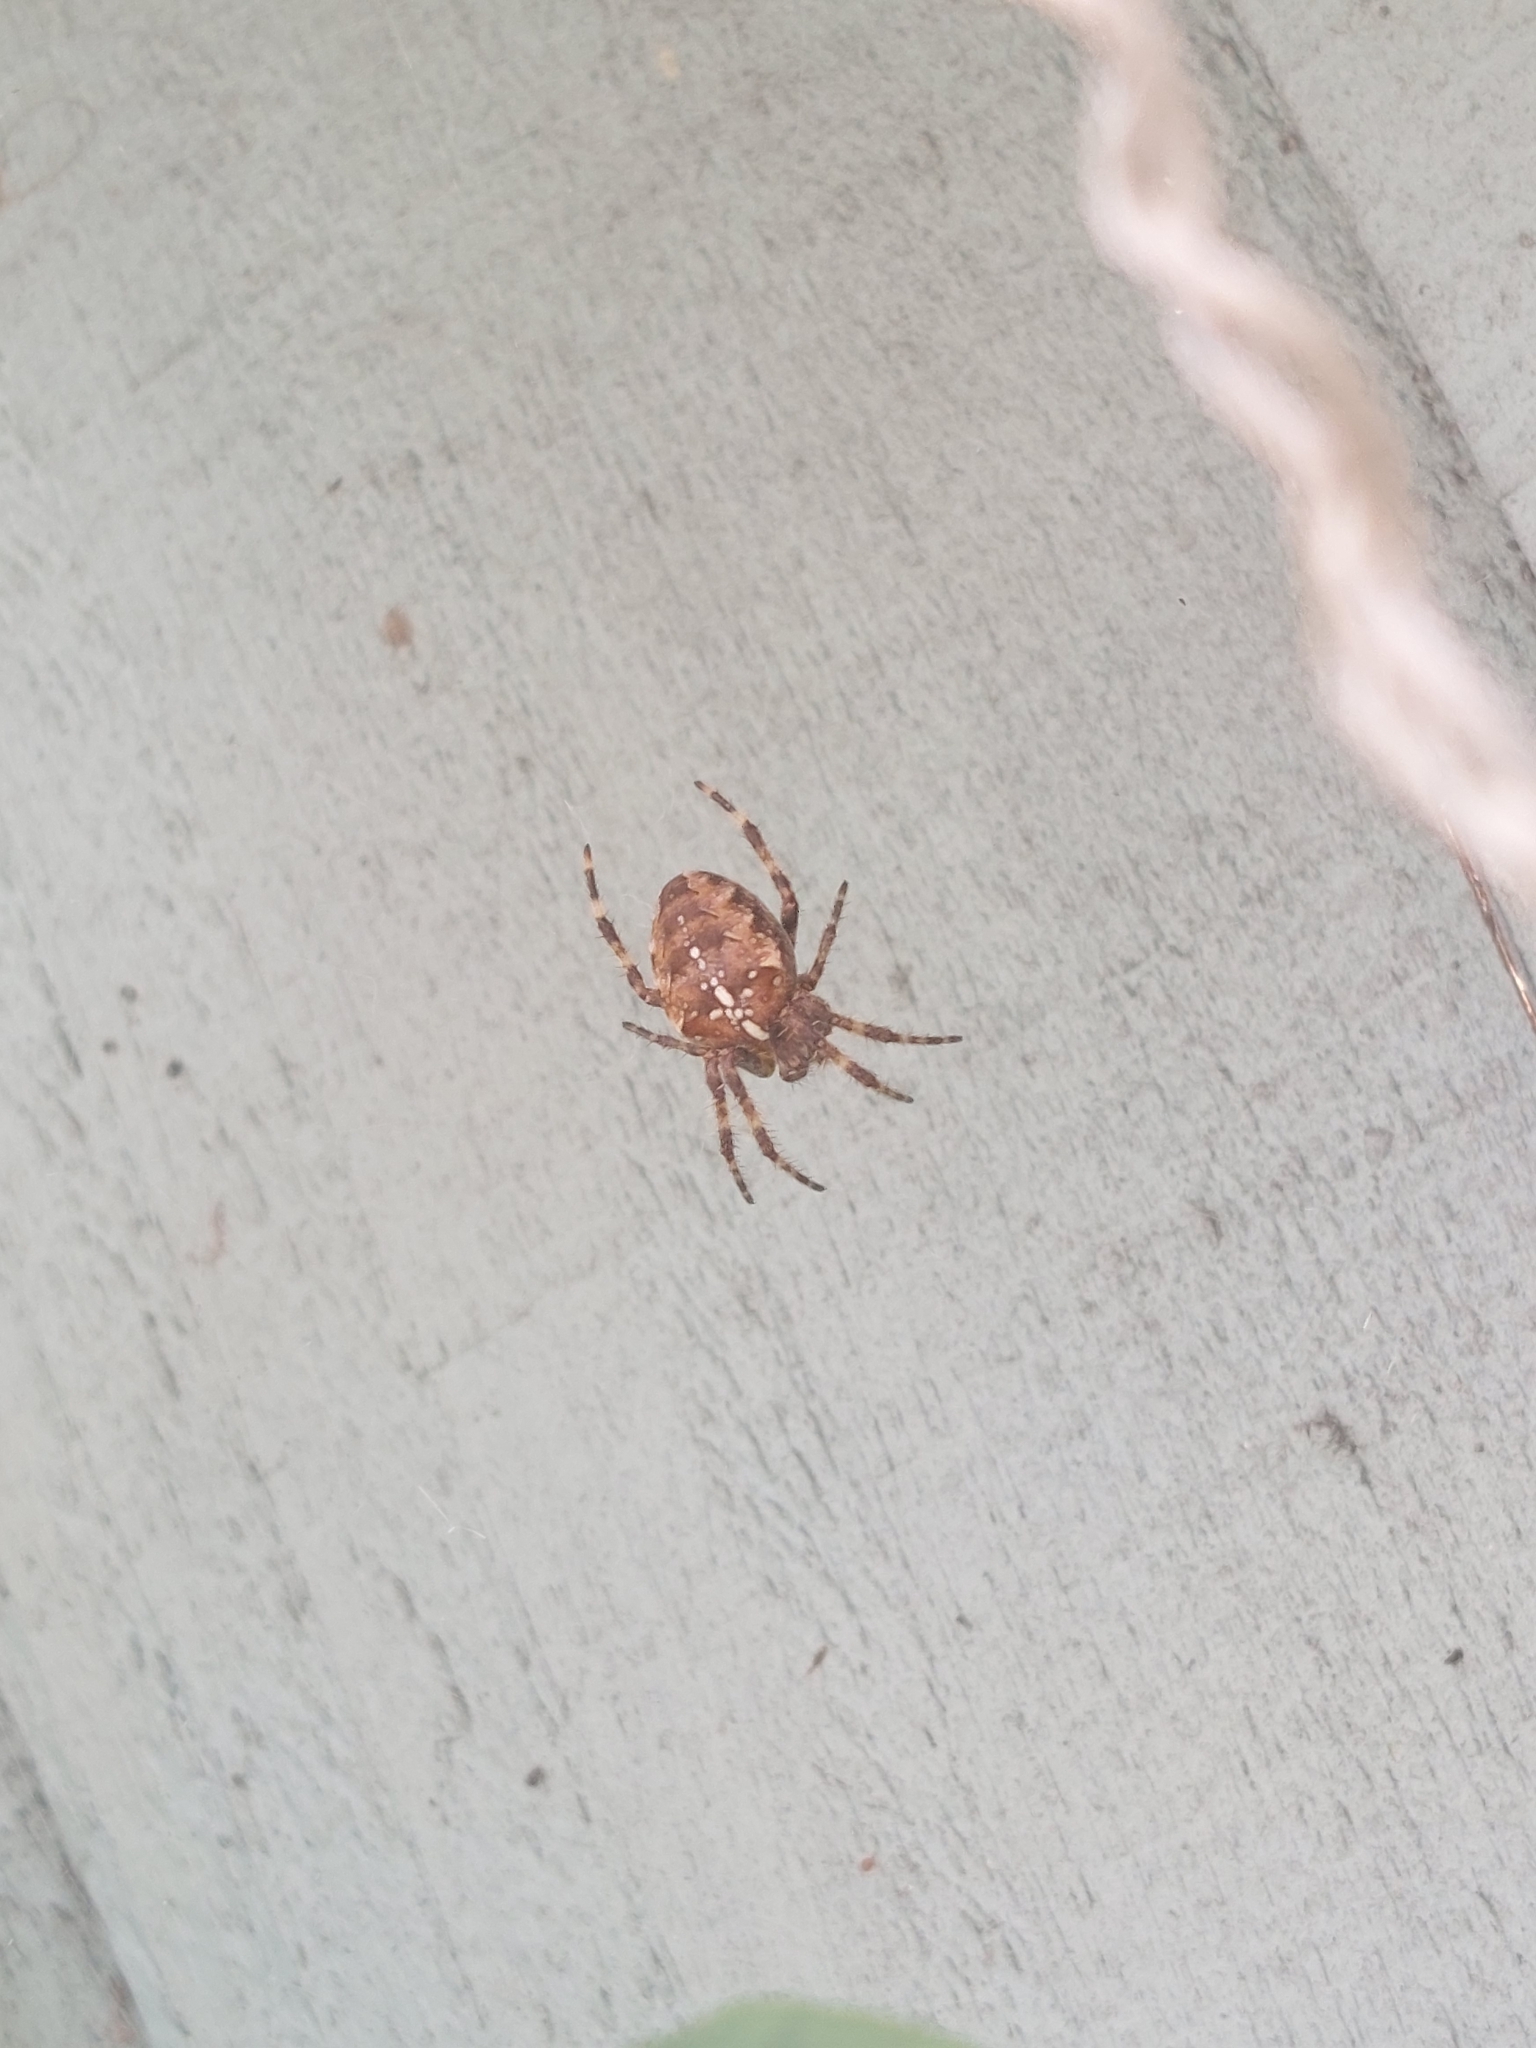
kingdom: Animalia
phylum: Arthropoda
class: Arachnida
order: Araneae
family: Araneidae
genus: Araneus
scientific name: Araneus diadematus
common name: Cross orbweaver
